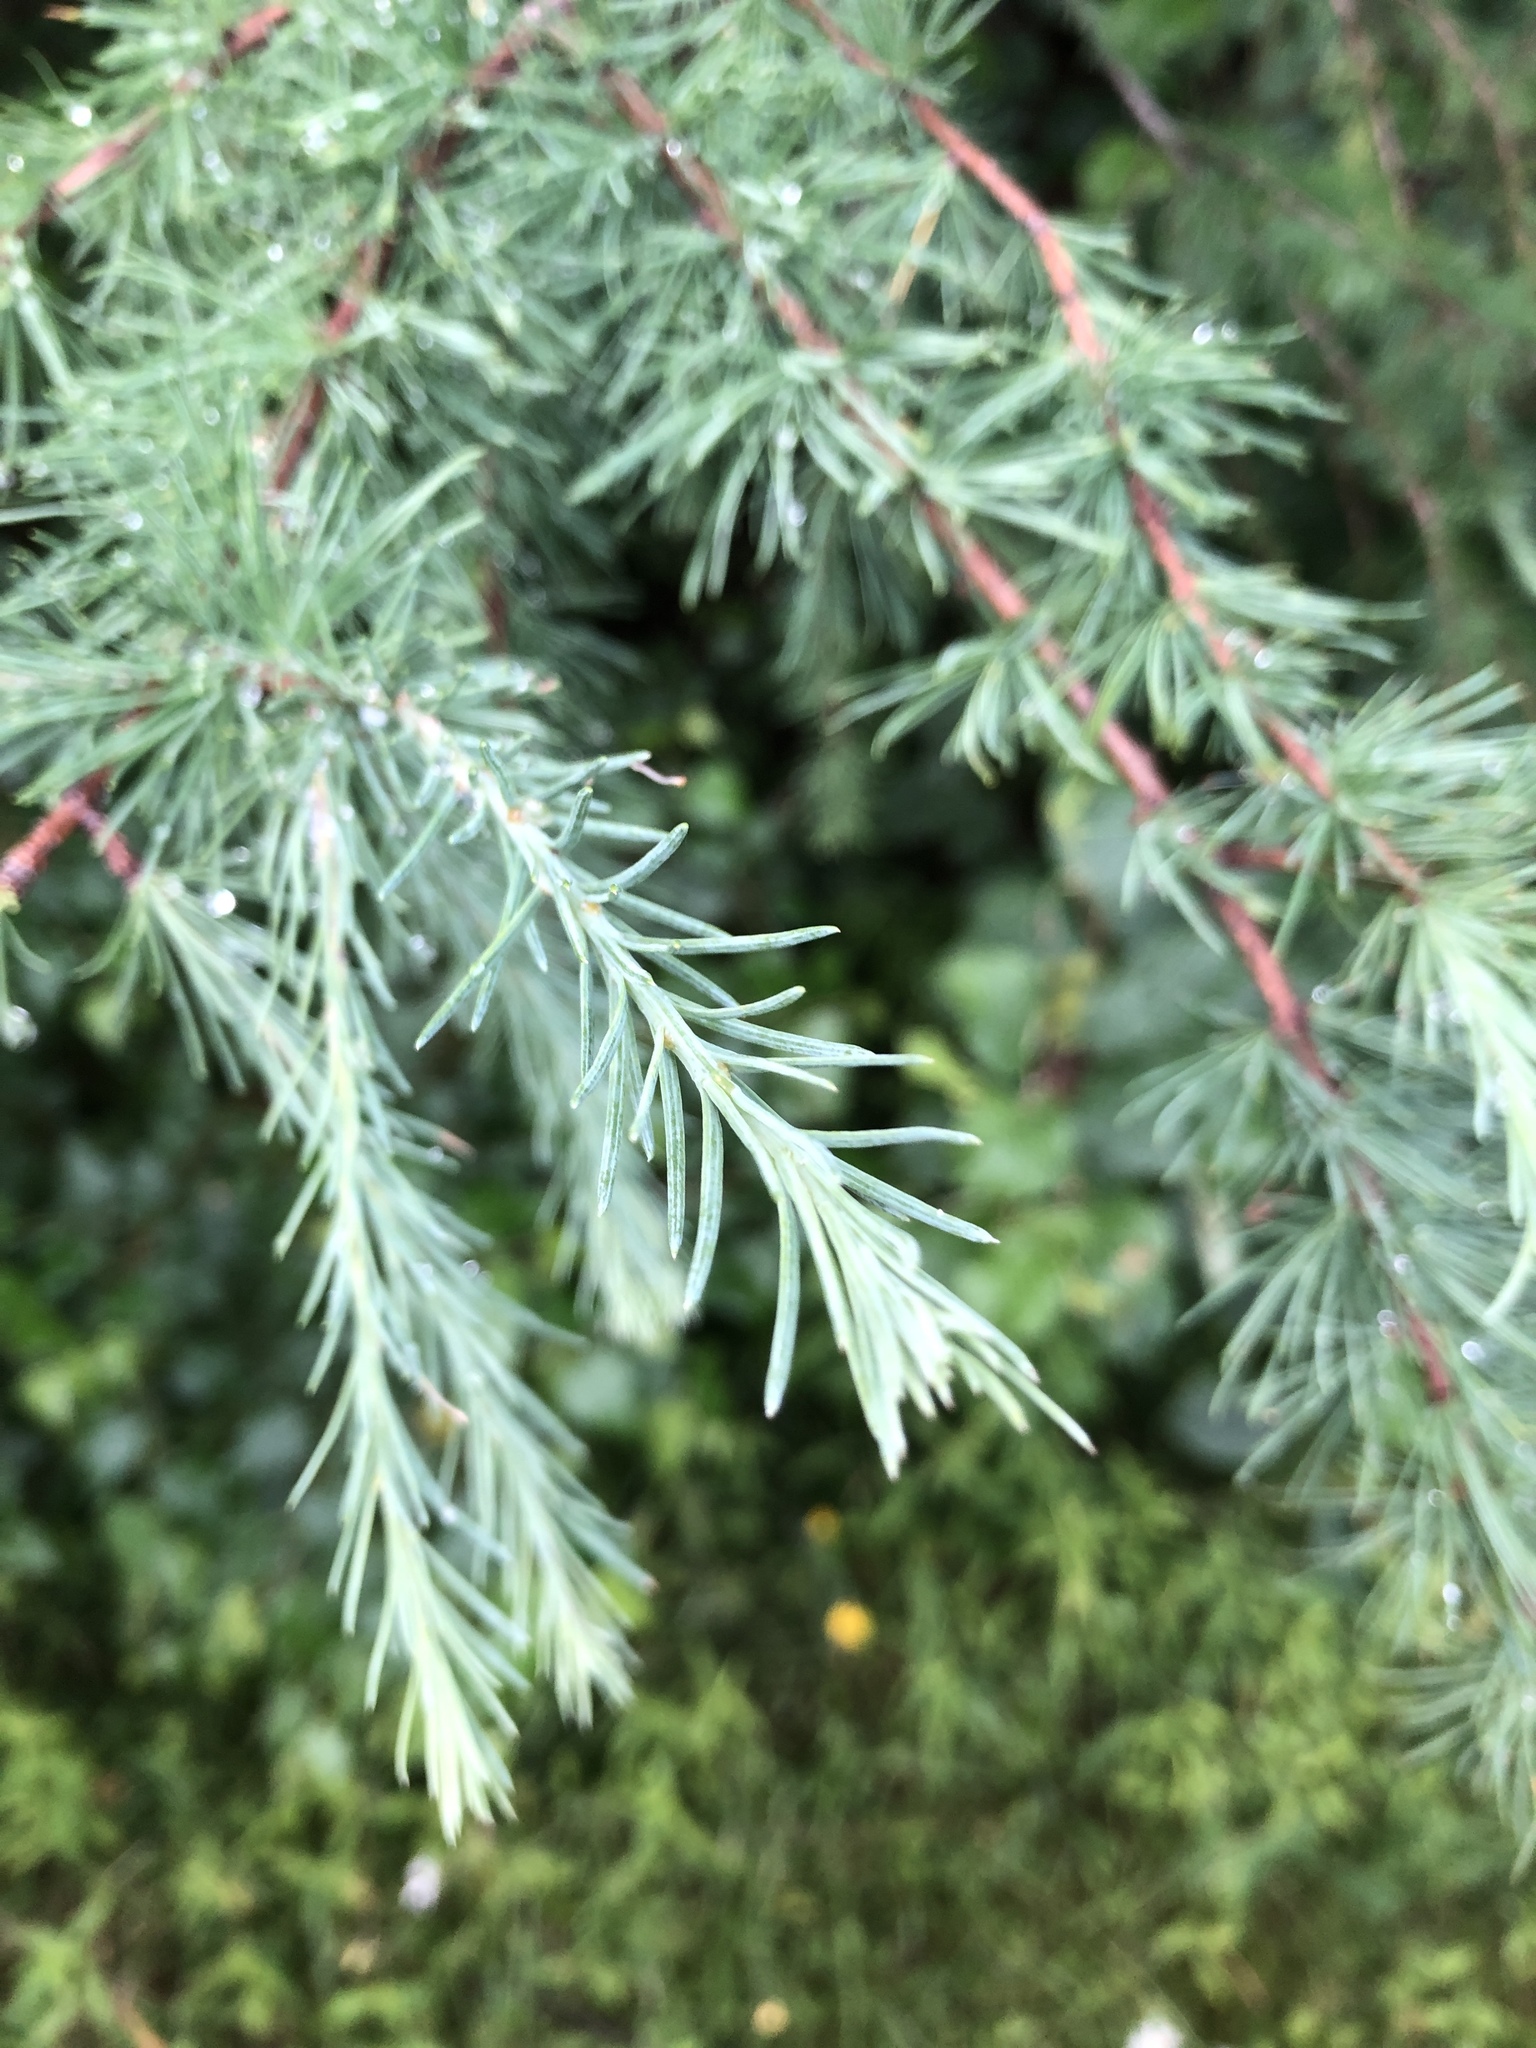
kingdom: Plantae
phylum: Tracheophyta
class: Pinopsida
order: Pinales
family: Pinaceae
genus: Larix
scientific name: Larix laricina
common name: American larch
